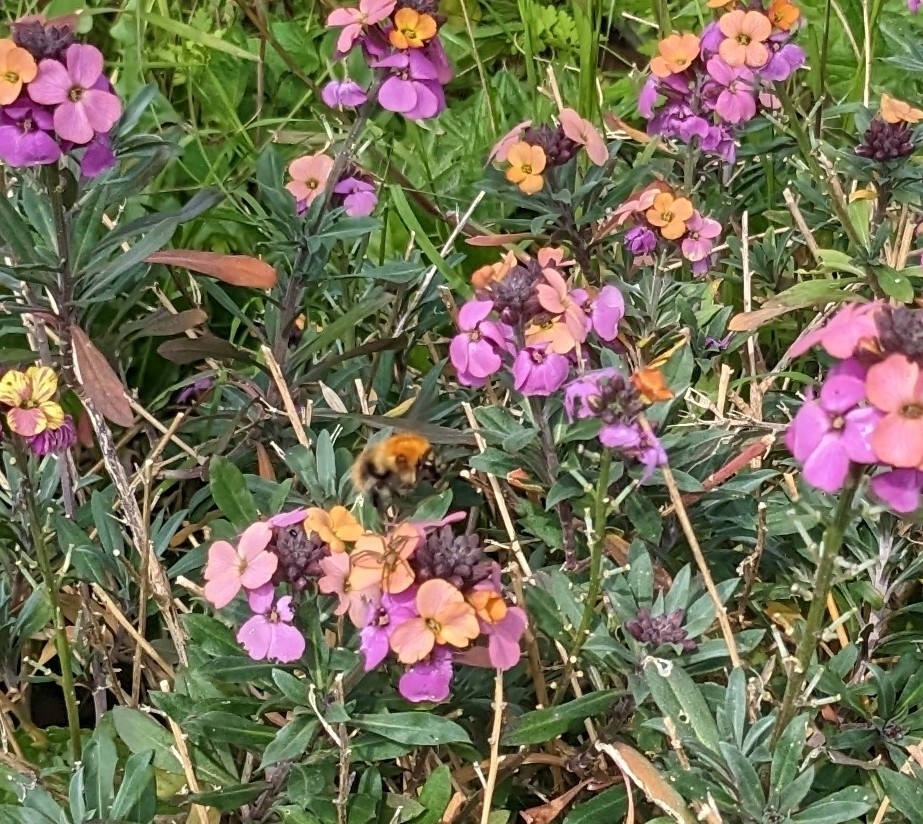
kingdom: Animalia
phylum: Arthropoda
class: Insecta
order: Hymenoptera
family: Apidae
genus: Bombus
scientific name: Bombus pascuorum
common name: Common carder bee
